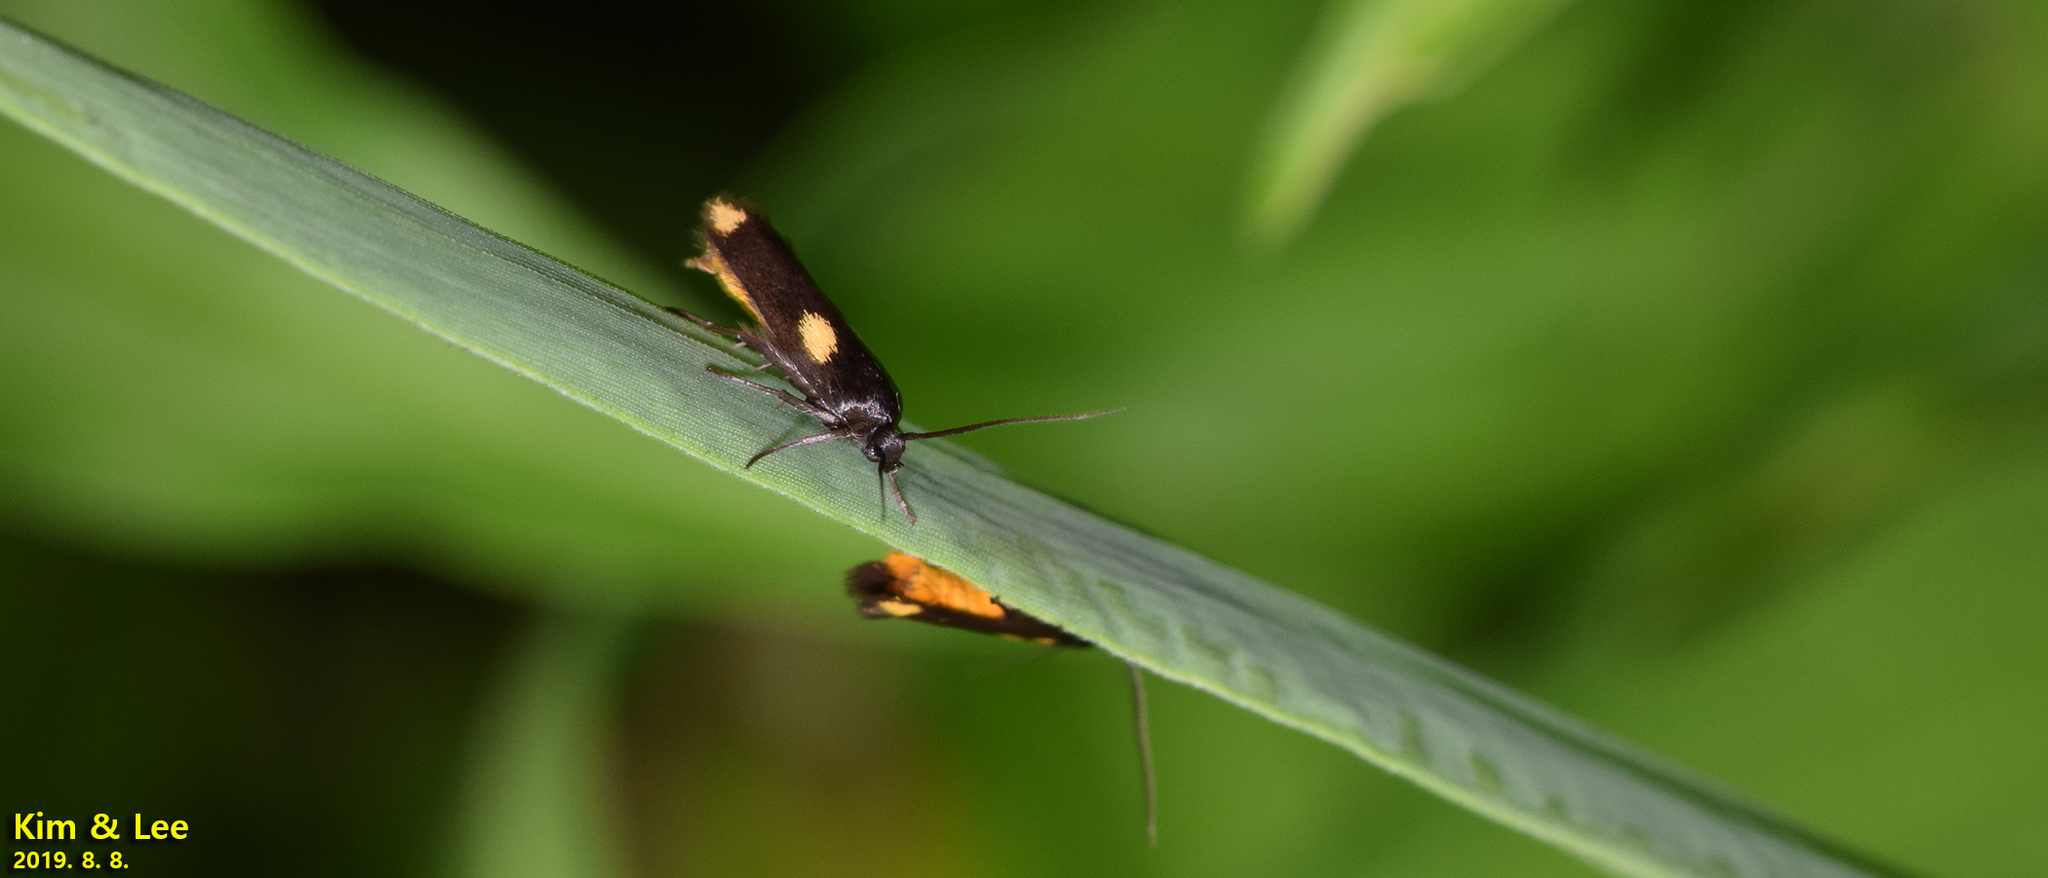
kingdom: Animalia
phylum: Arthropoda
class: Insecta
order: Lepidoptera
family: Scythrididae
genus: Scythris
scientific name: Scythris sinensis
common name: Kentish owlet
